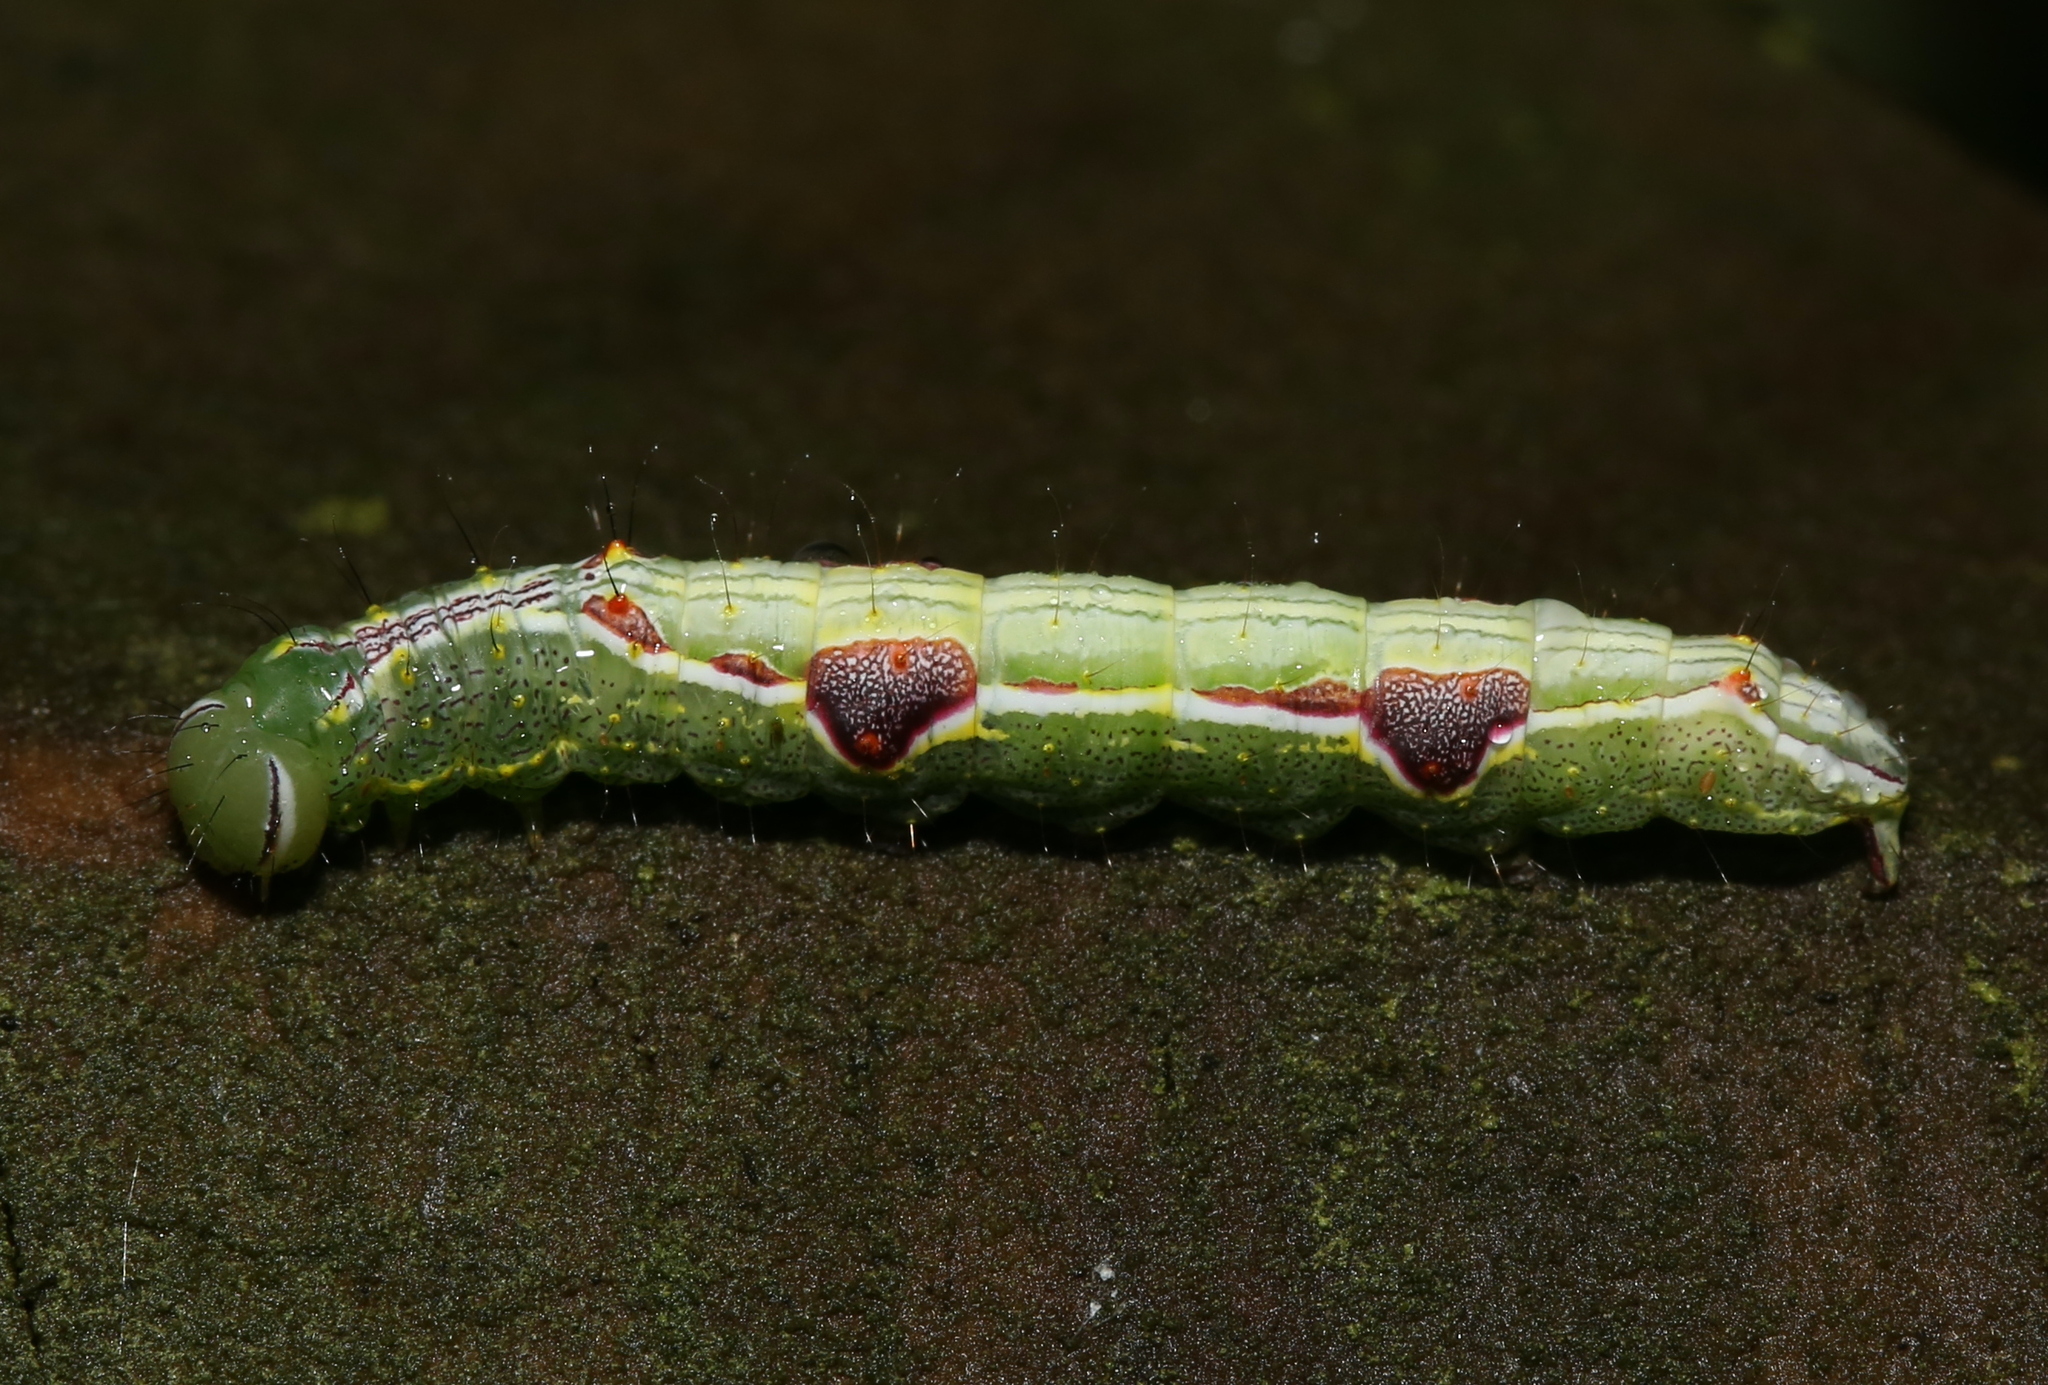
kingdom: Animalia
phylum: Arthropoda
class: Insecta
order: Lepidoptera
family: Notodontidae
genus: Lochmaeus
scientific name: Lochmaeus bilineata
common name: Double-lined prominent
